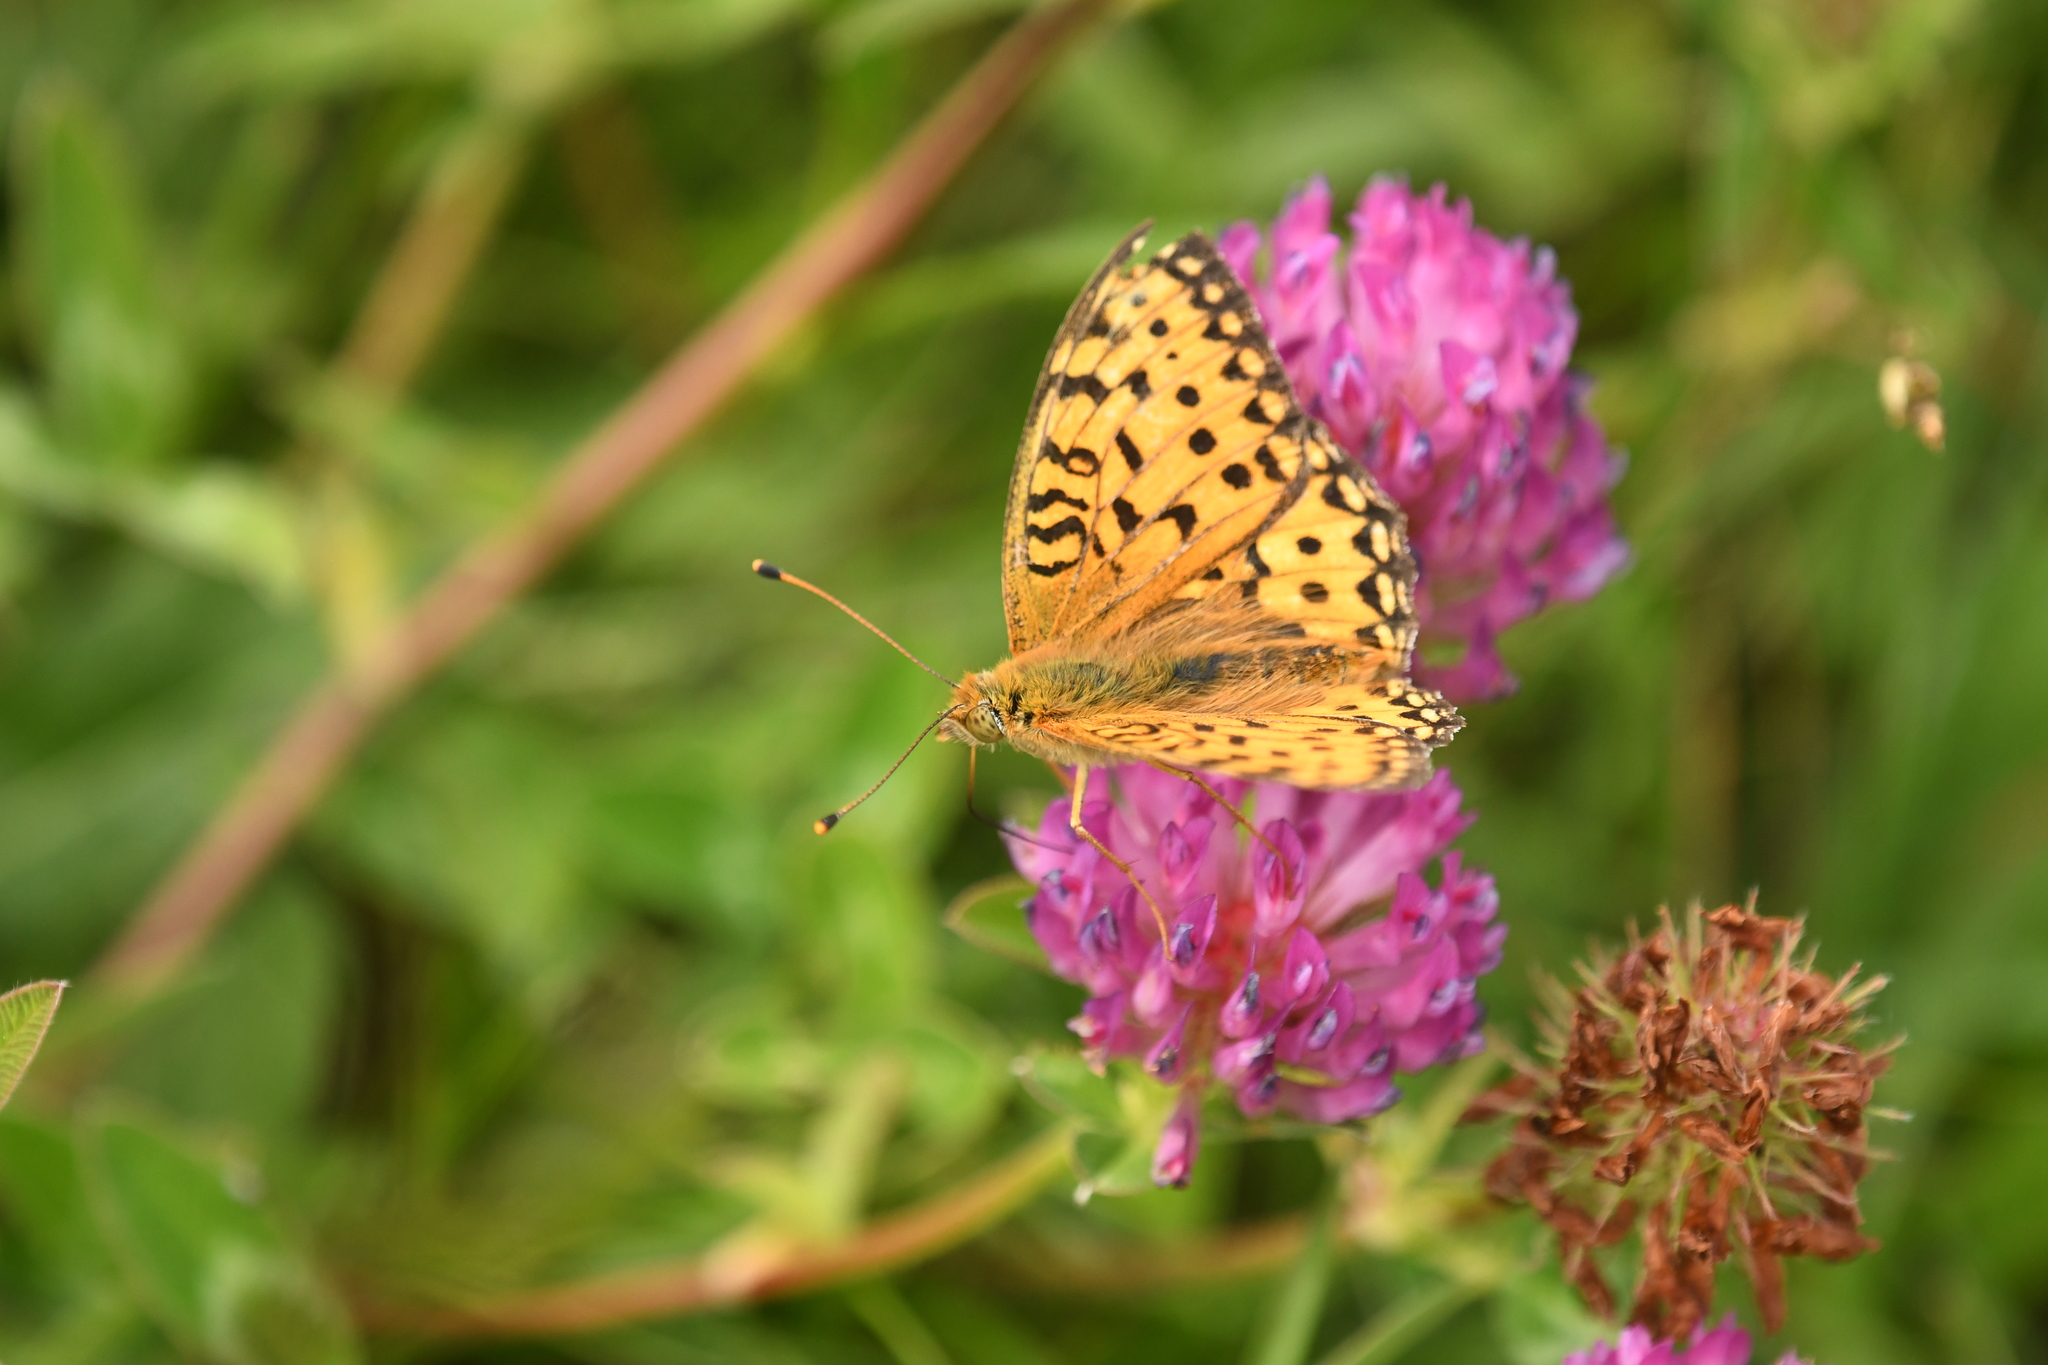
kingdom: Animalia
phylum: Arthropoda
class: Insecta
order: Lepidoptera
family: Nymphalidae
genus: Speyeria
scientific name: Speyeria aglaja
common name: Dark green fritillary
